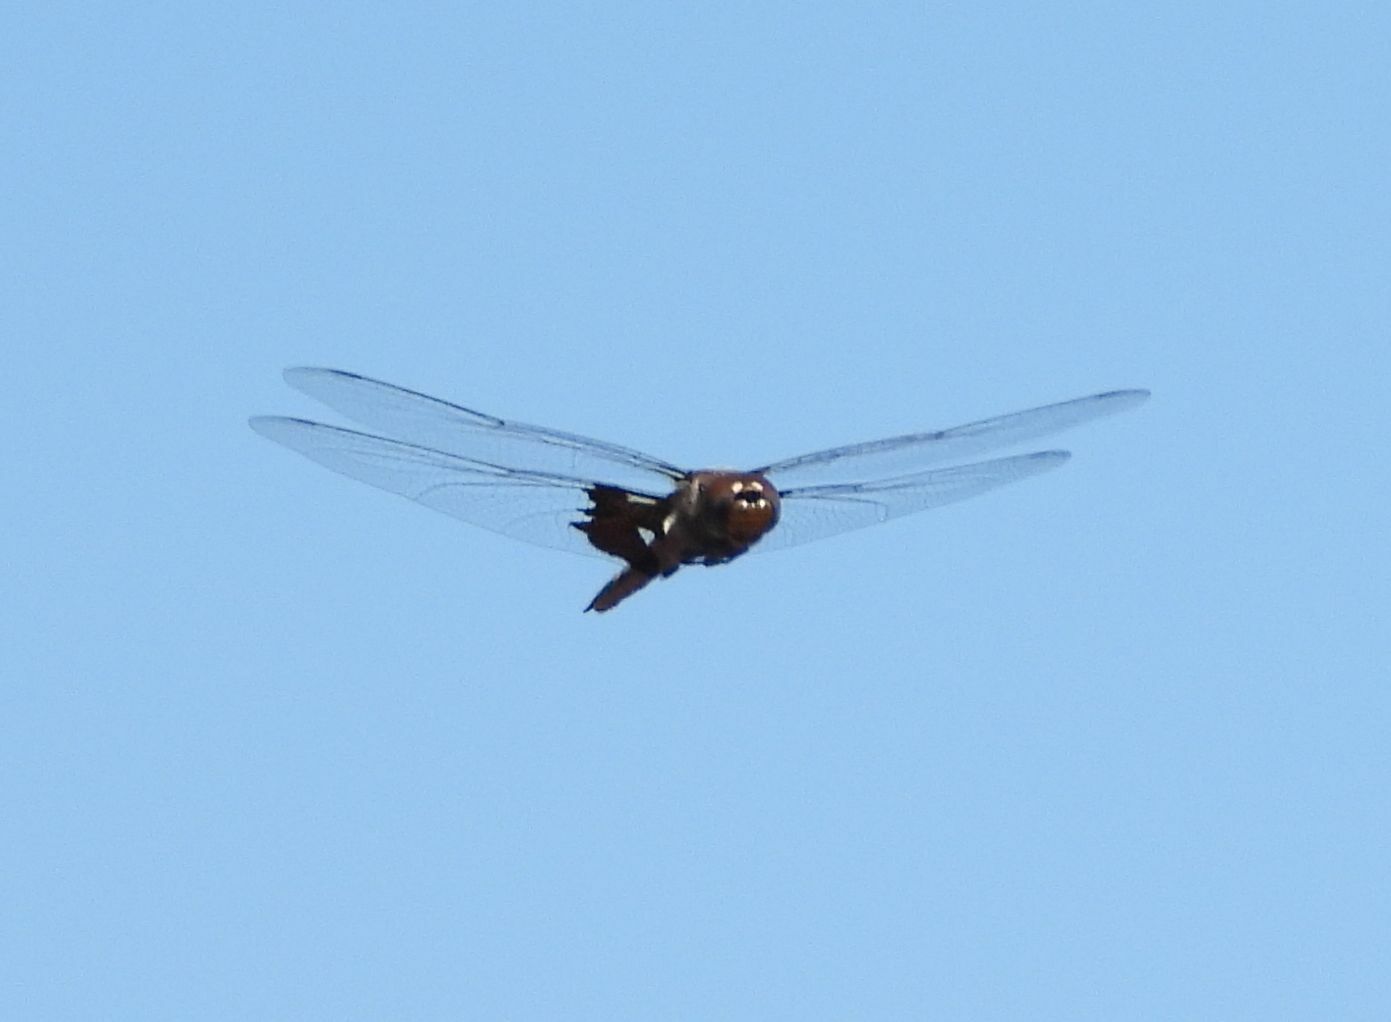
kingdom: Animalia
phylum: Arthropoda
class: Insecta
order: Odonata
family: Libellulidae
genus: Tramea
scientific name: Tramea lacerata
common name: Black saddlebags
